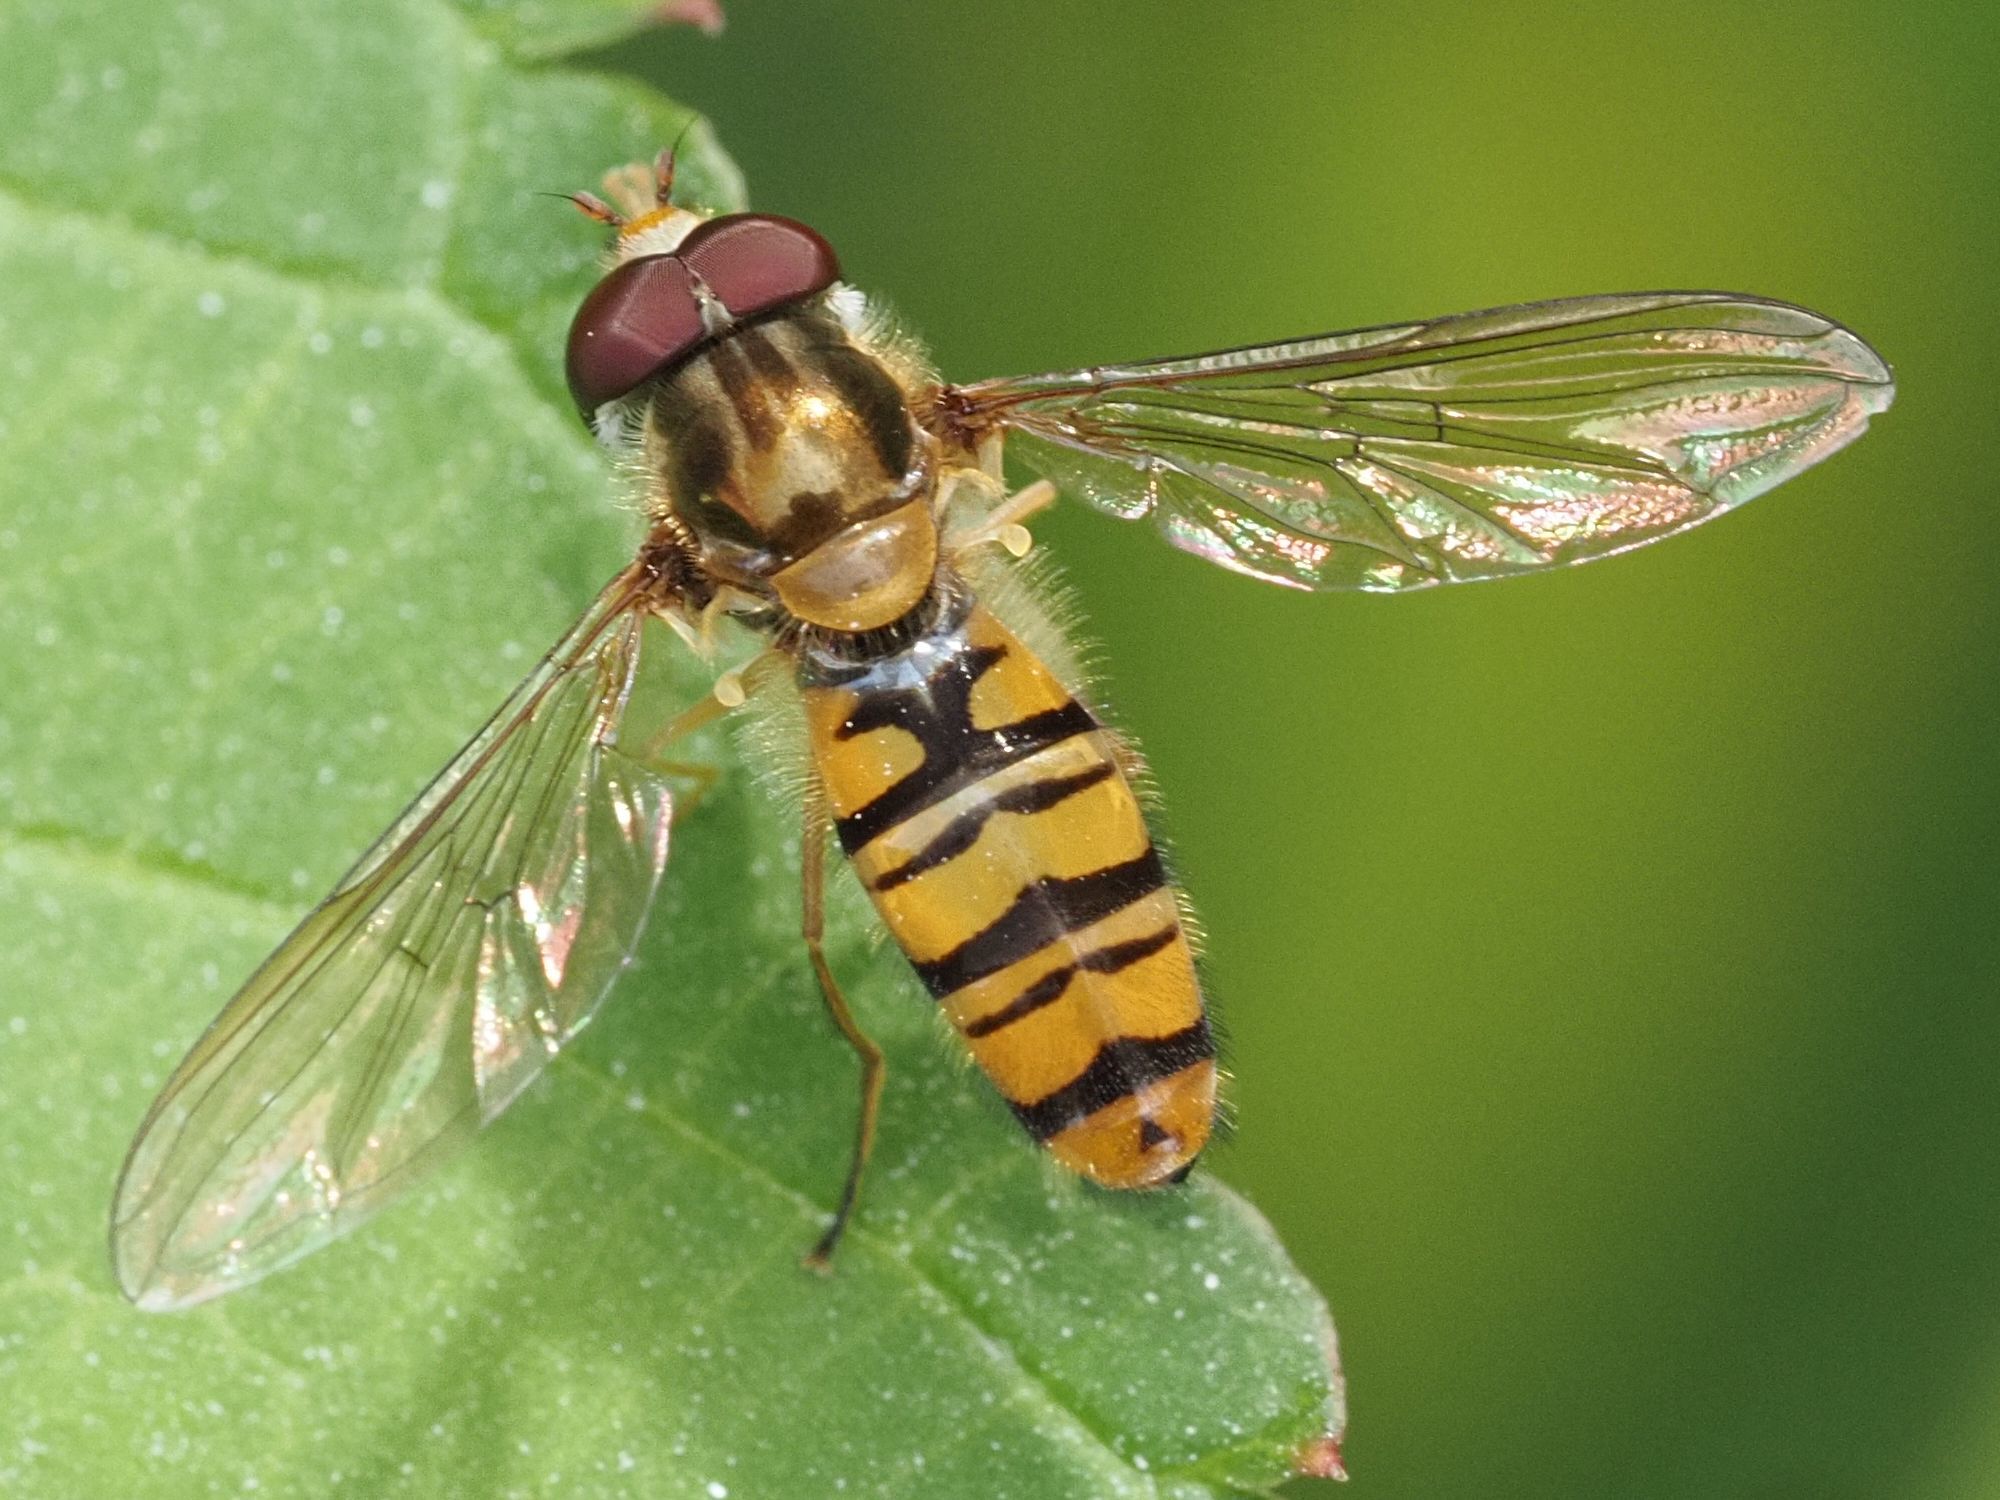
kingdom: Animalia
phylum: Arthropoda
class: Insecta
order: Diptera
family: Syrphidae
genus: Episyrphus
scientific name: Episyrphus balteatus
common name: Marmalade hoverfly
